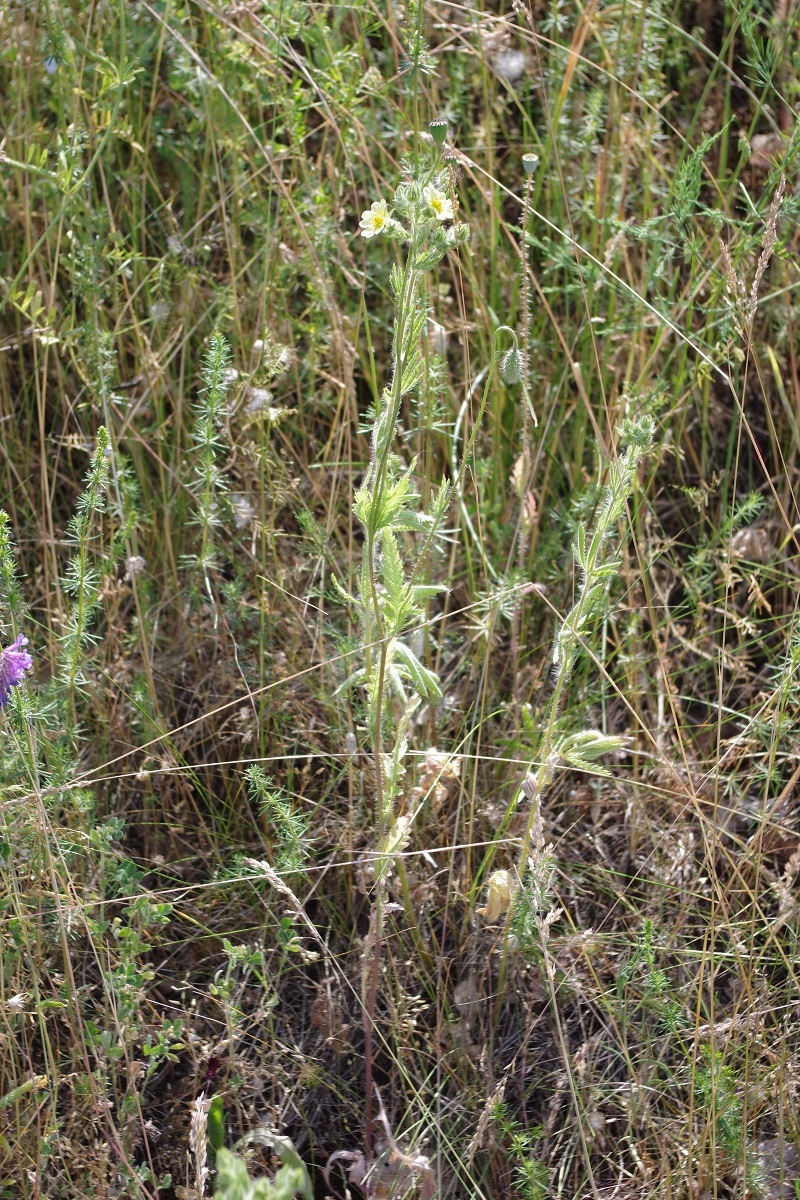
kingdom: Plantae
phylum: Tracheophyta
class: Magnoliopsida
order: Rosales
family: Rosaceae
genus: Potentilla
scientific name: Potentilla recta
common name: Sulphur cinquefoil
